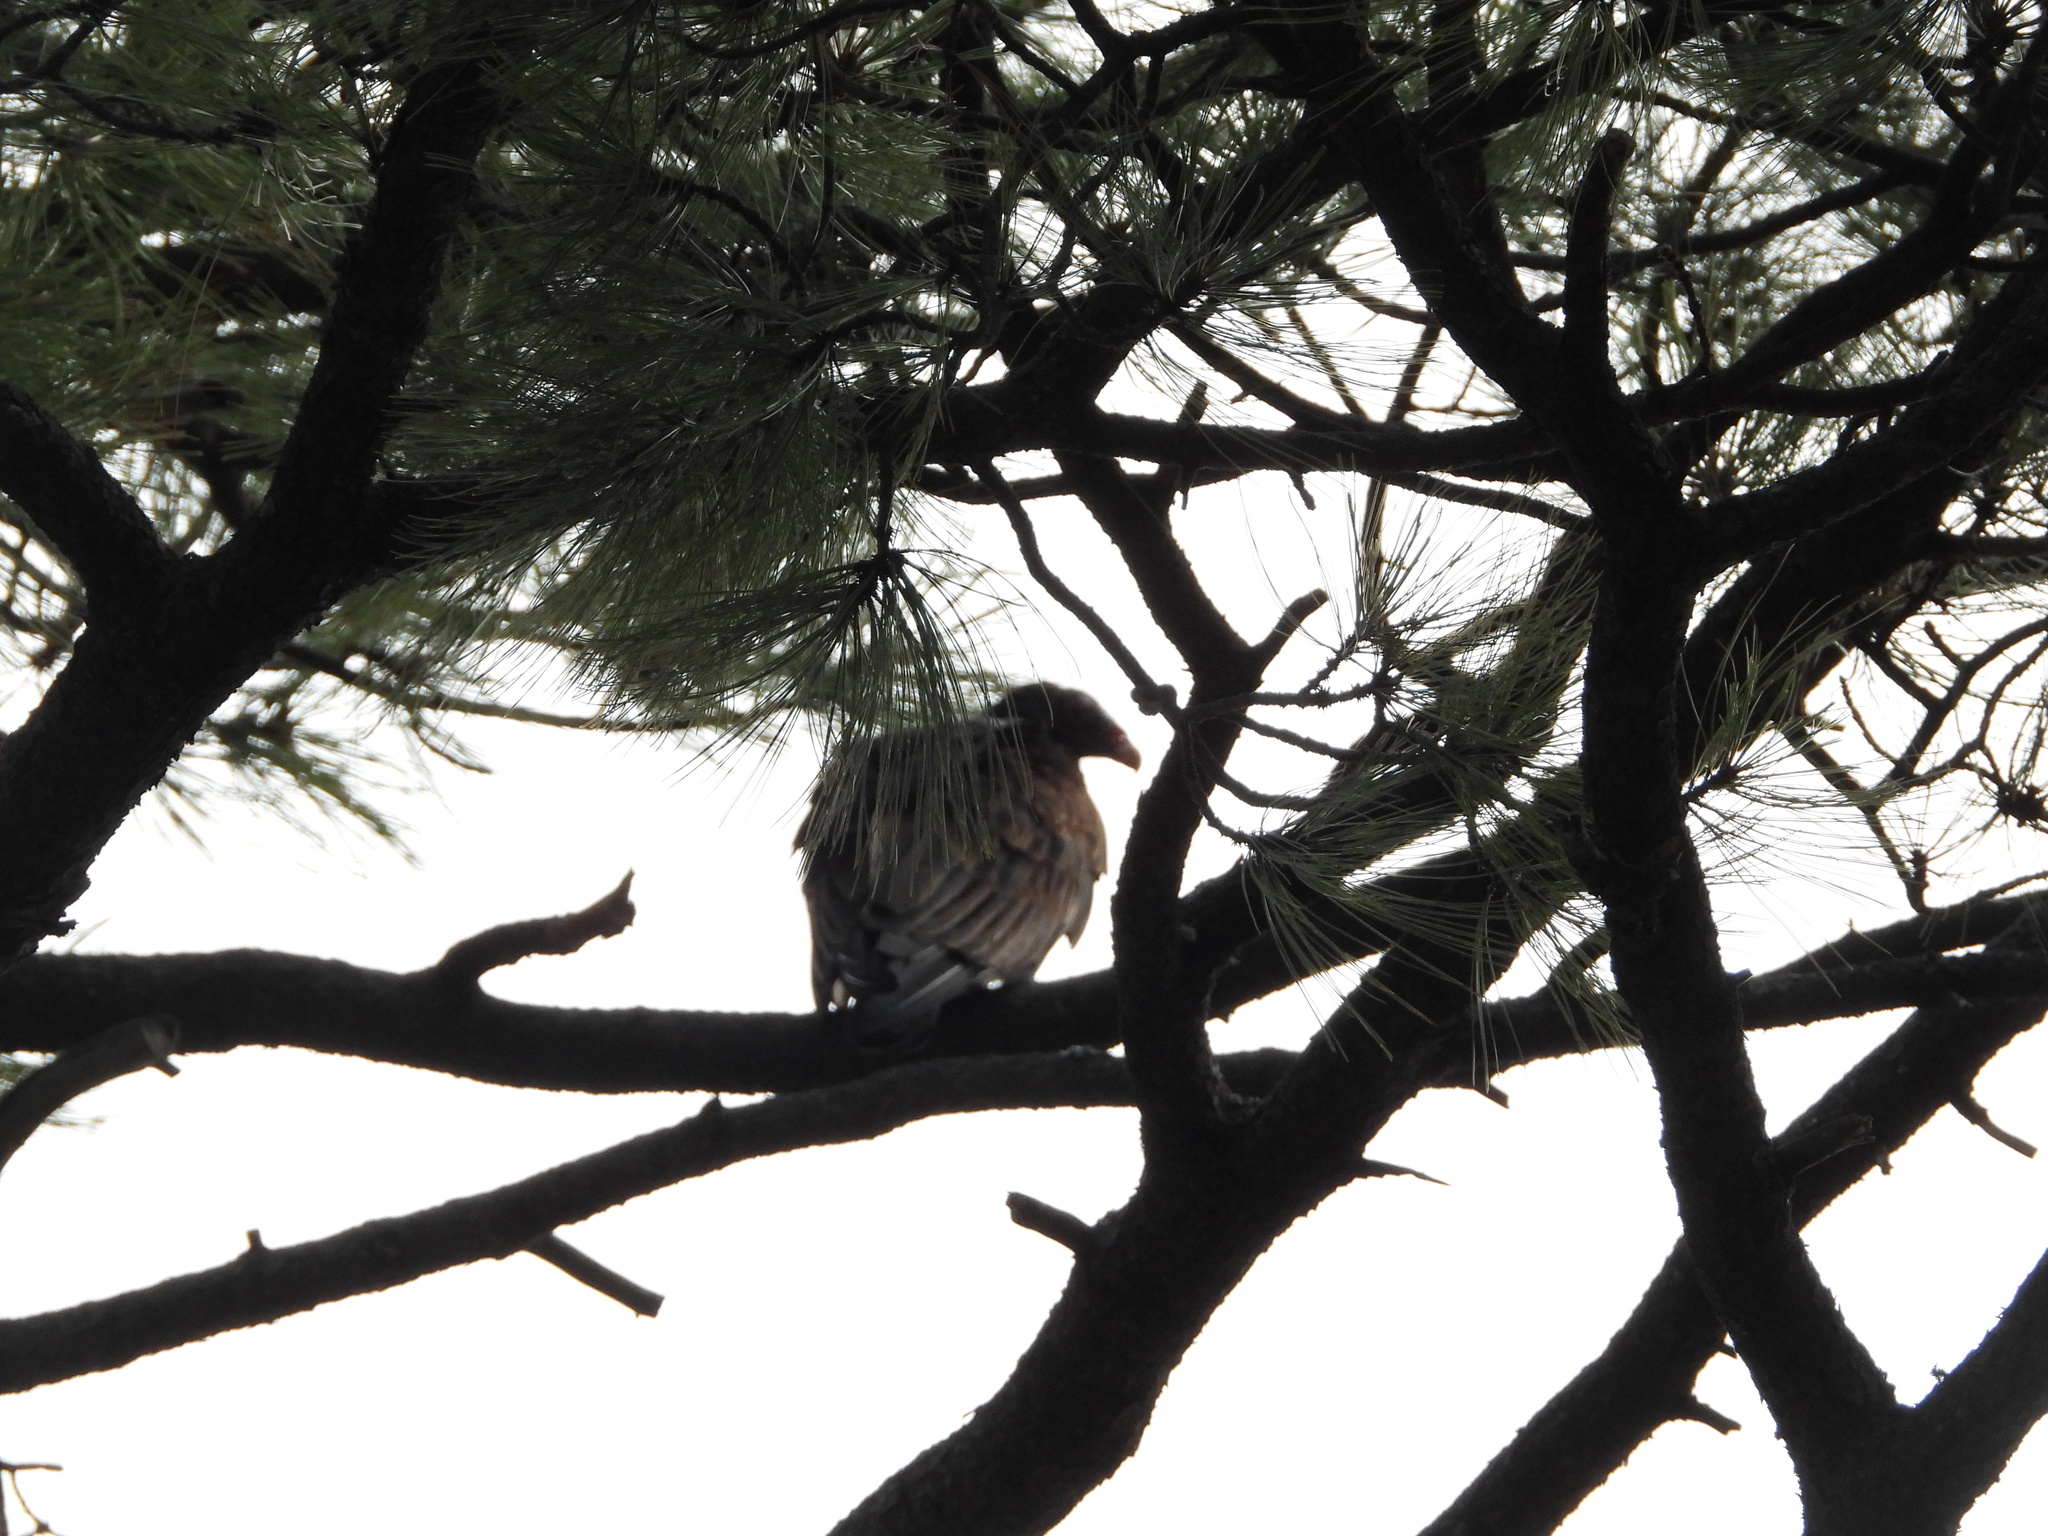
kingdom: Animalia
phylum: Chordata
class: Aves
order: Accipitriformes
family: Cathartidae
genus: Cathartes
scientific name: Cathartes aura
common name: Turkey vulture
